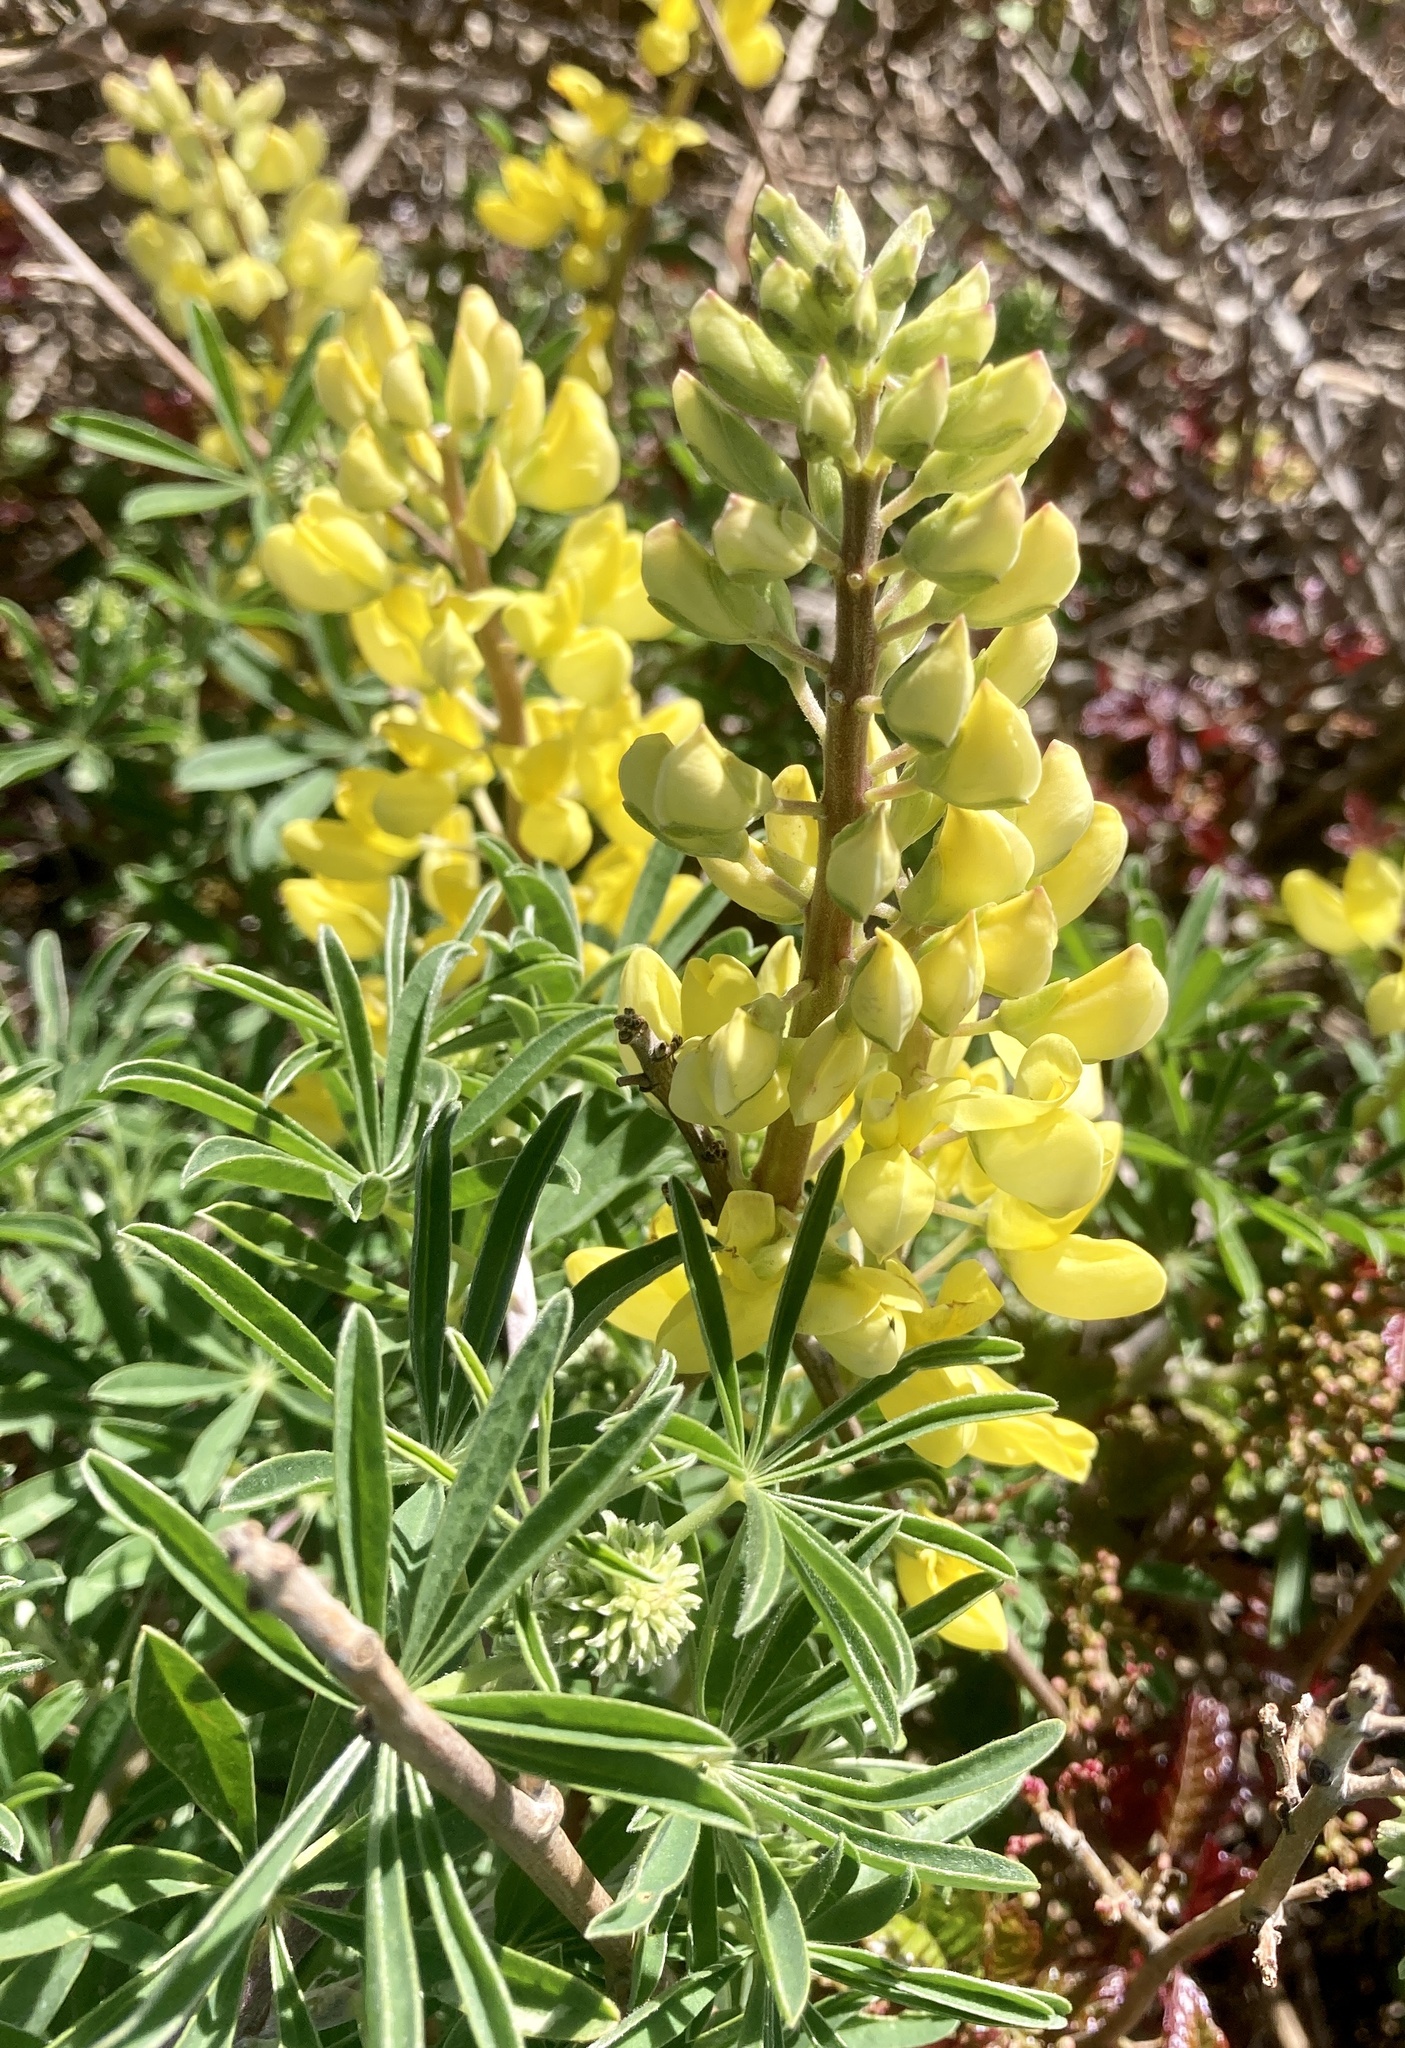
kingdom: Plantae
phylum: Tracheophyta
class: Magnoliopsida
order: Fabales
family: Fabaceae
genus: Lupinus
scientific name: Lupinus arboreus
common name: Yellow bush lupine
